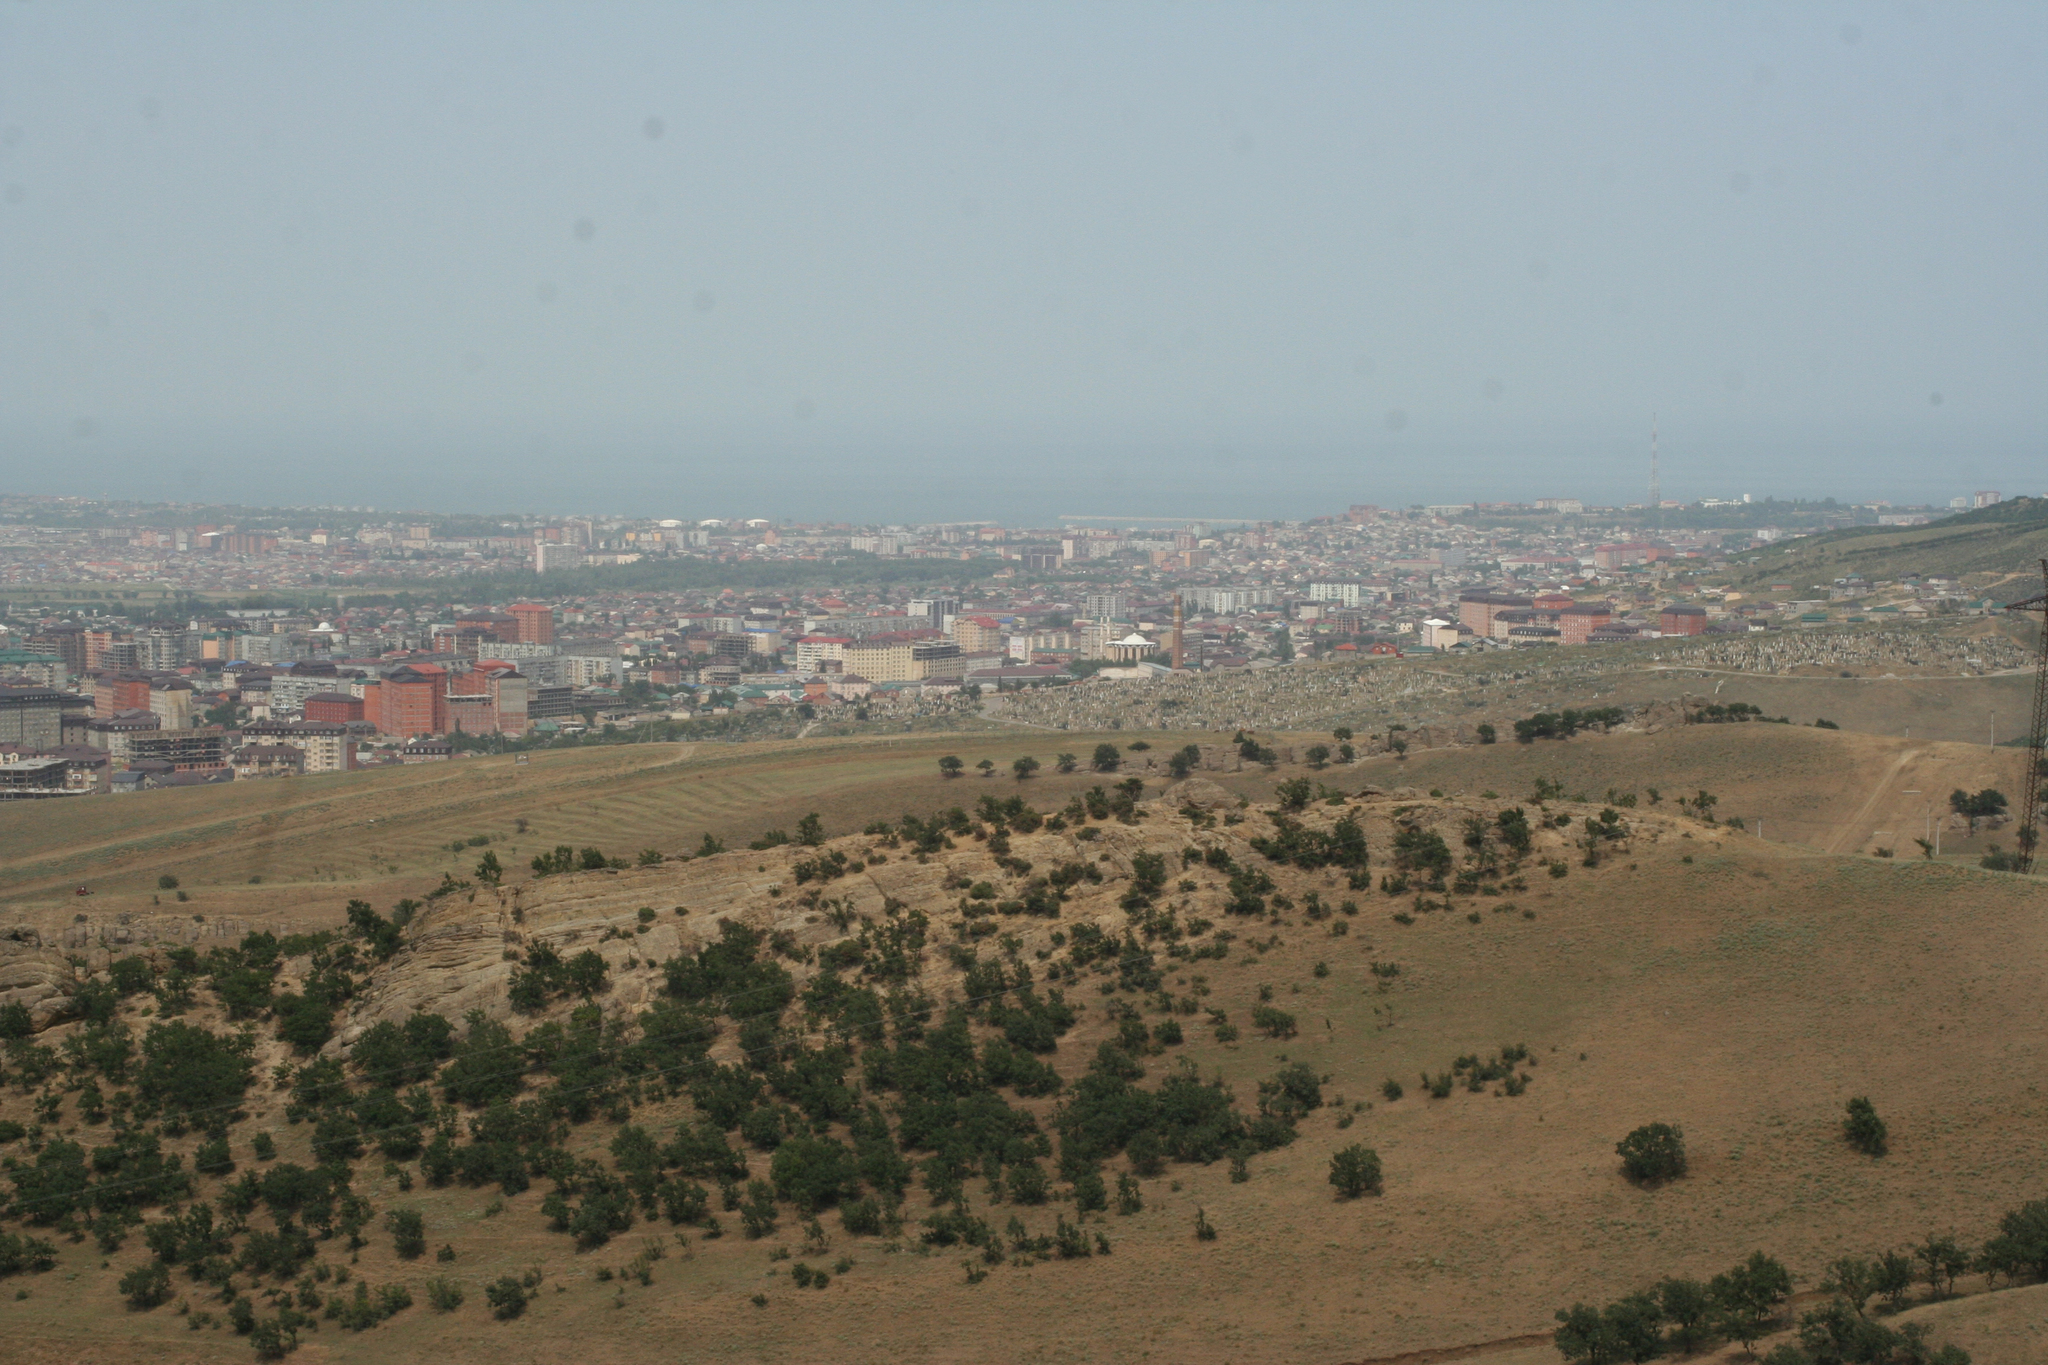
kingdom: Plantae
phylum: Tracheophyta
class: Magnoliopsida
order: Fagales
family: Fagaceae
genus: Quercus
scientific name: Quercus petraea
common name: Sessile oak
